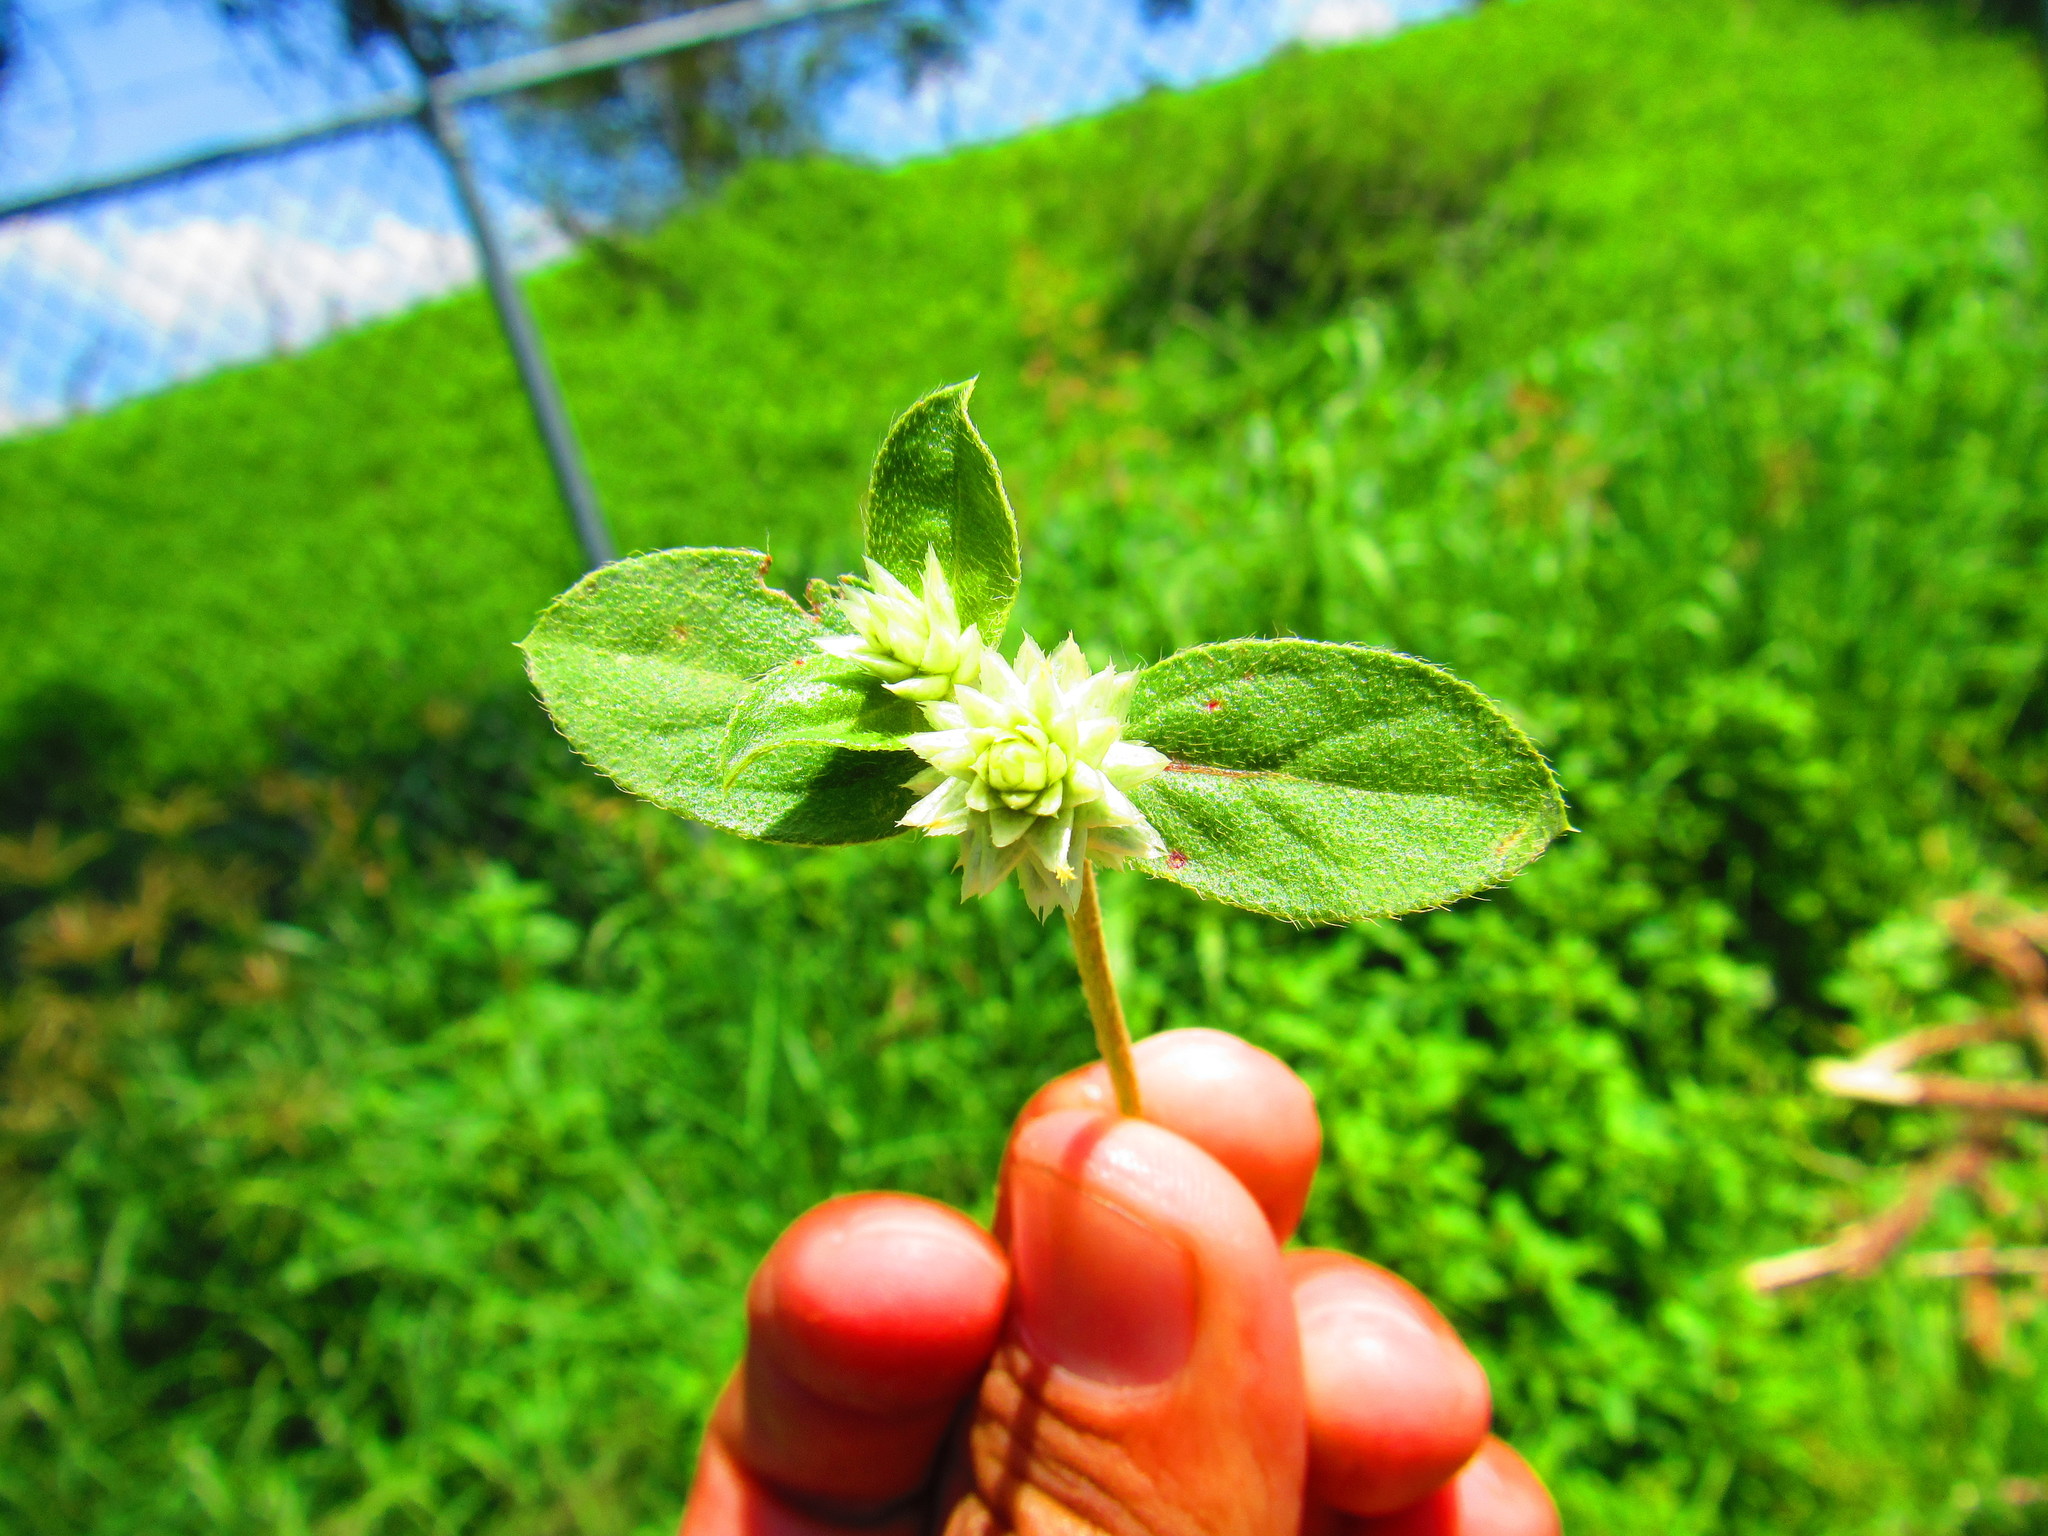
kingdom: Plantae
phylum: Tracheophyta
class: Magnoliopsida
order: Caryophyllales
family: Amaranthaceae
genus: Gomphrena
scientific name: Gomphrena serrata
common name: Arrasa con todo
